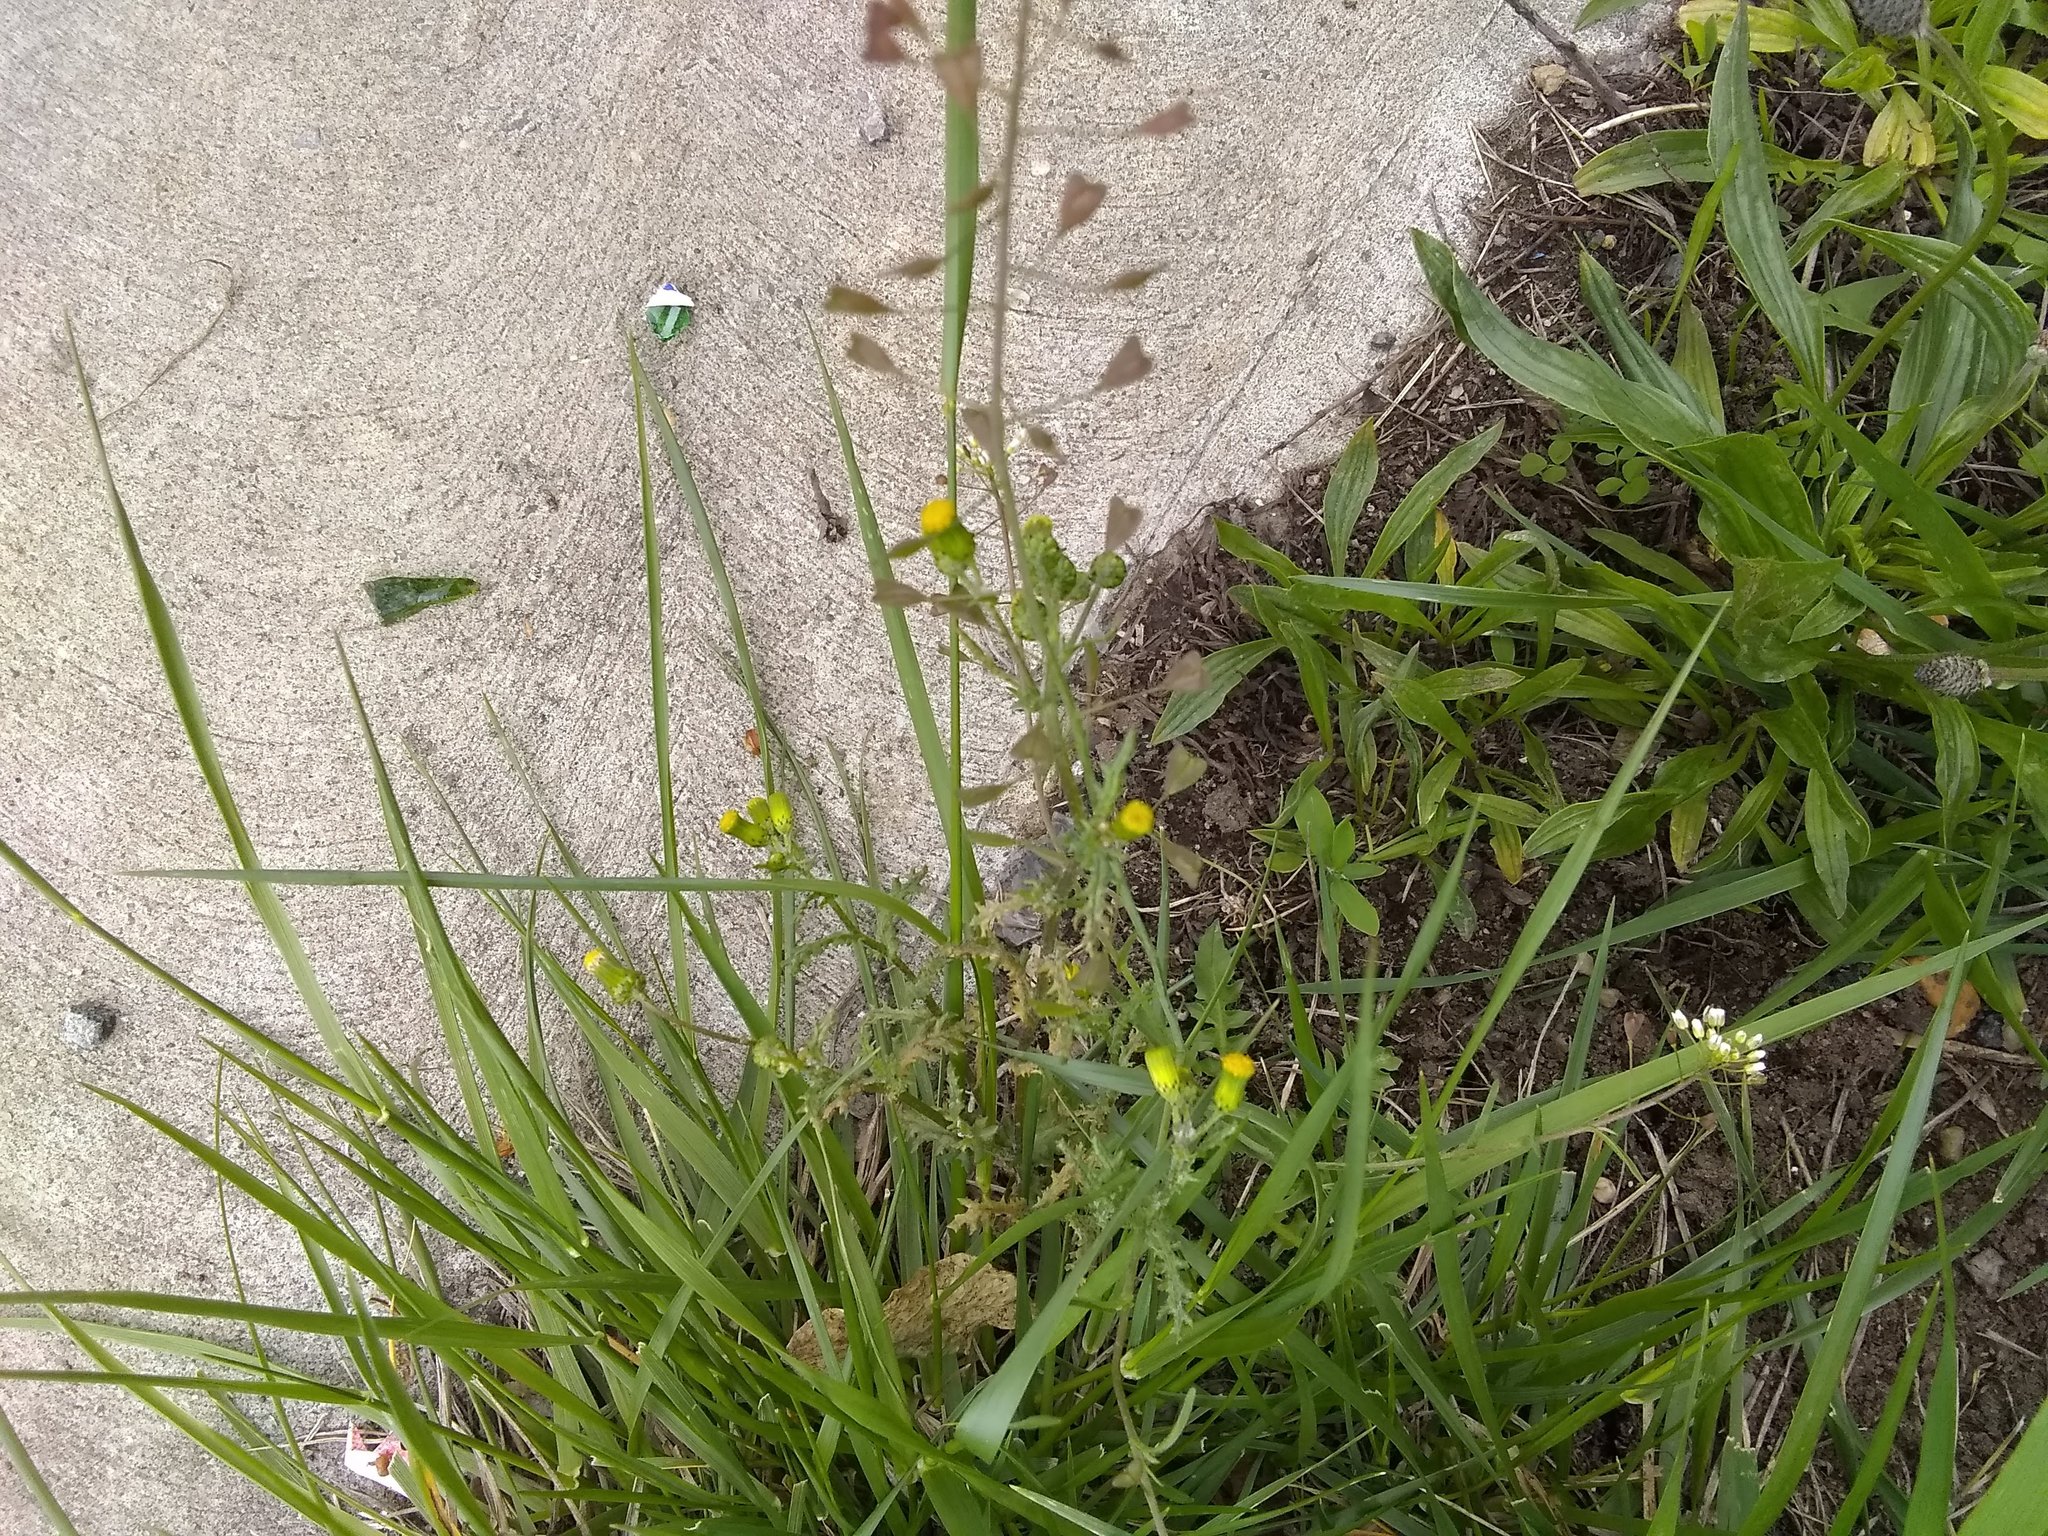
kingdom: Plantae
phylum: Tracheophyta
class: Magnoliopsida
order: Asterales
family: Asteraceae
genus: Senecio
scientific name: Senecio vulgaris
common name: Old-man-in-the-spring
